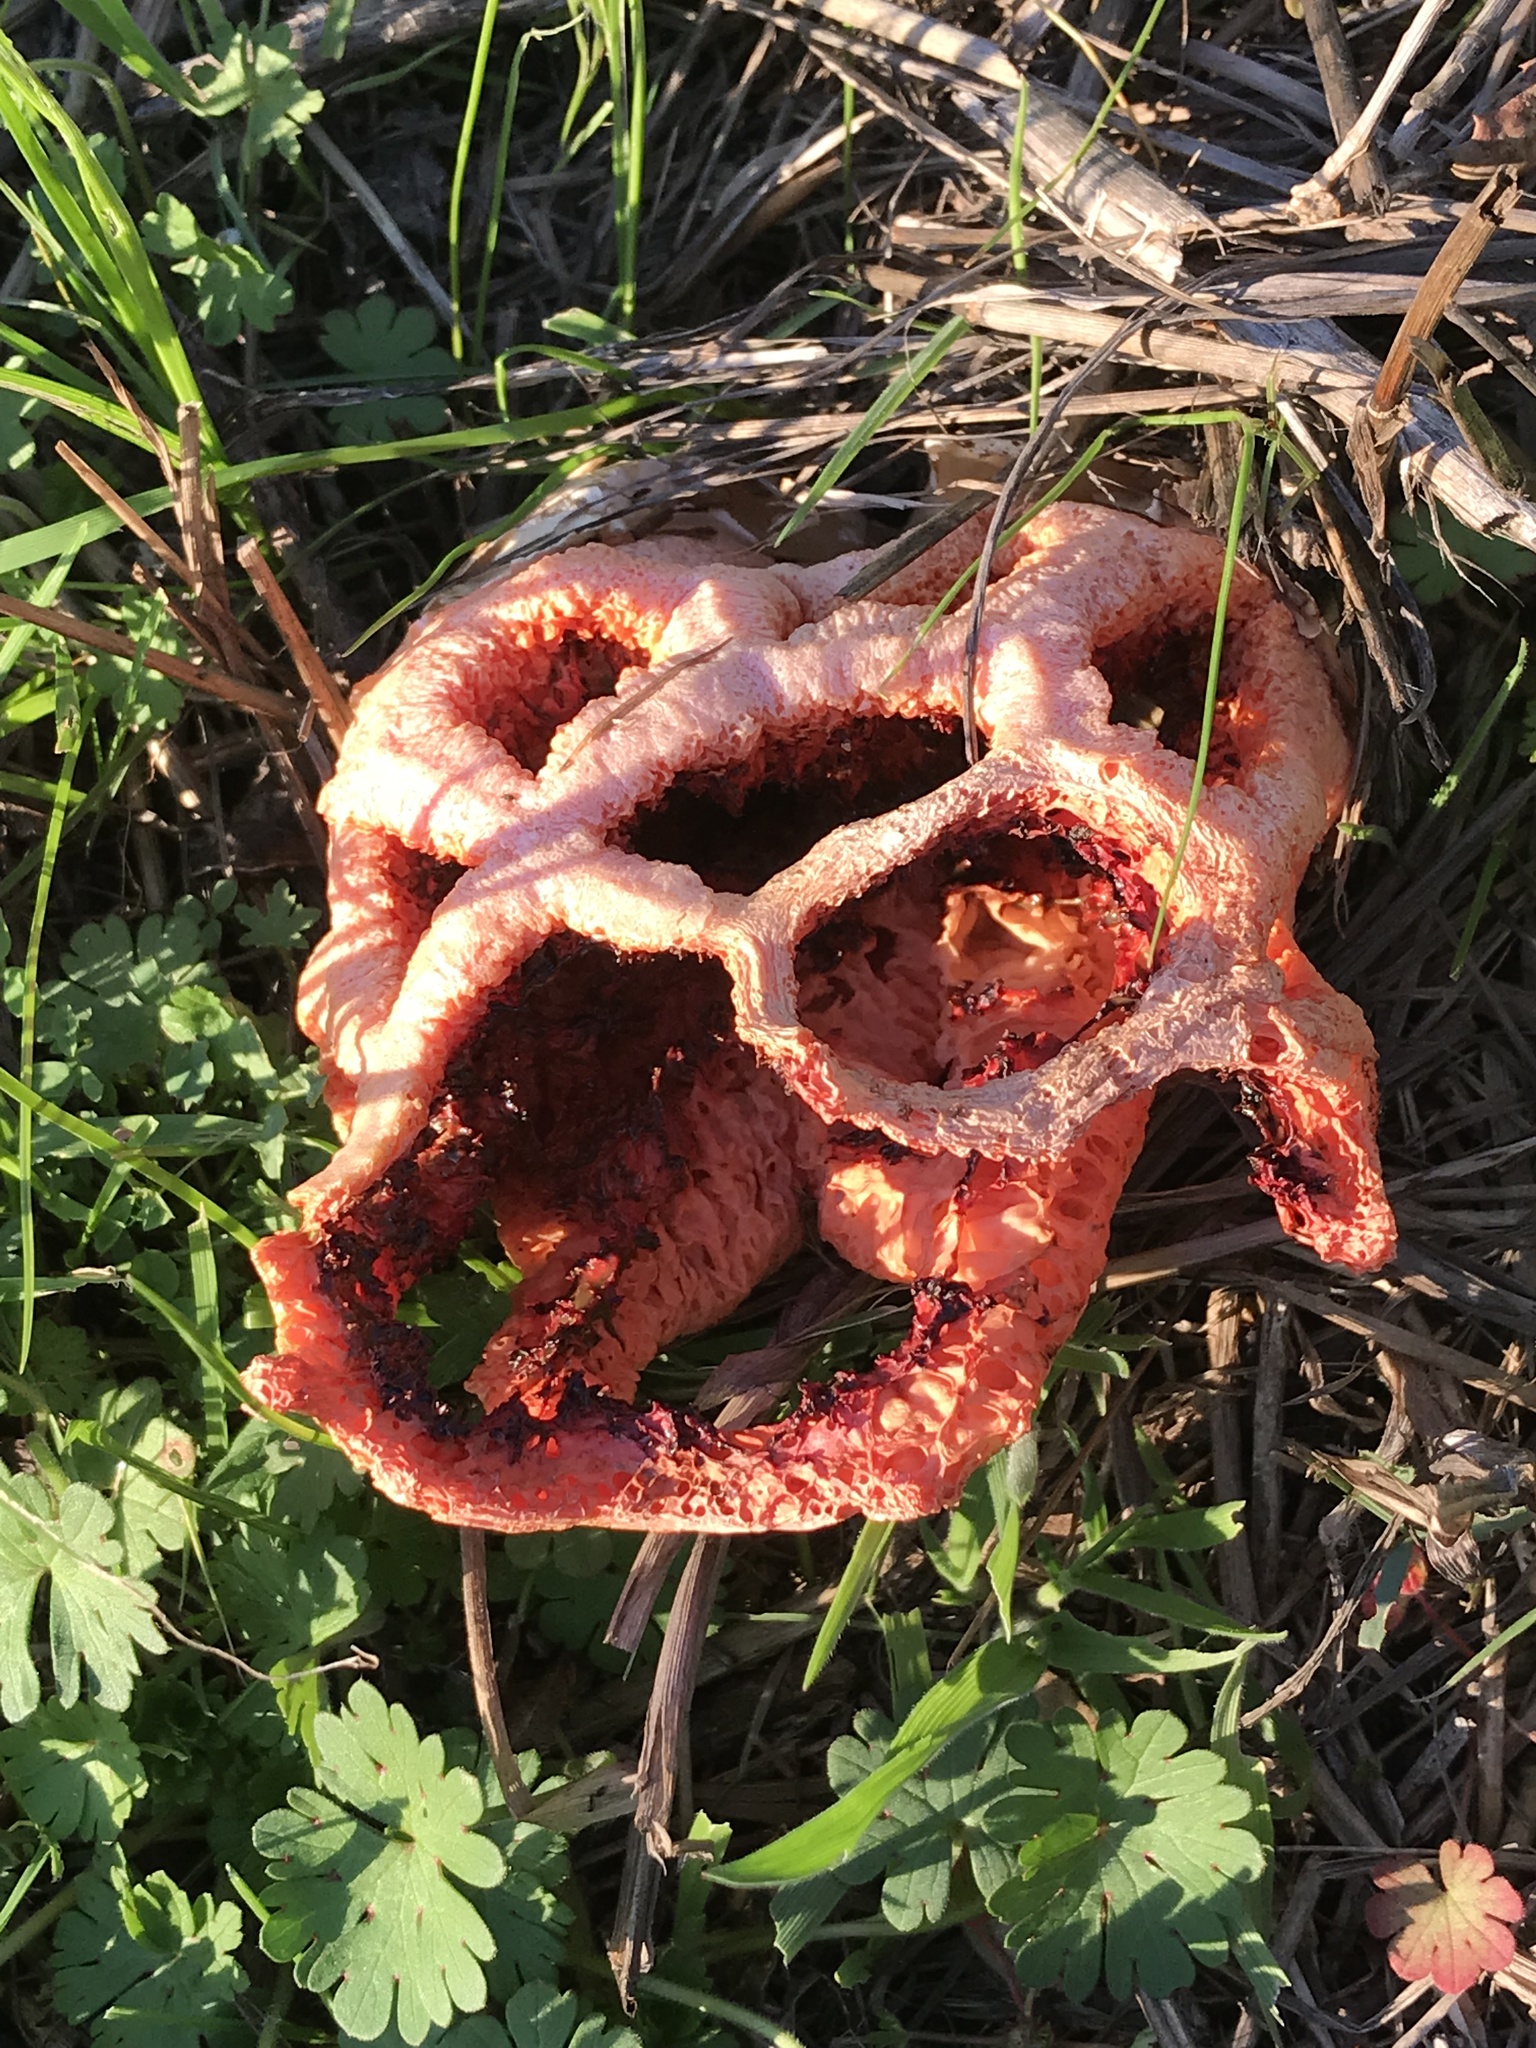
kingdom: Fungi
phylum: Basidiomycota
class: Agaricomycetes
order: Phallales
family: Phallaceae
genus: Clathrus
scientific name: Clathrus ruber
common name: Red cage
